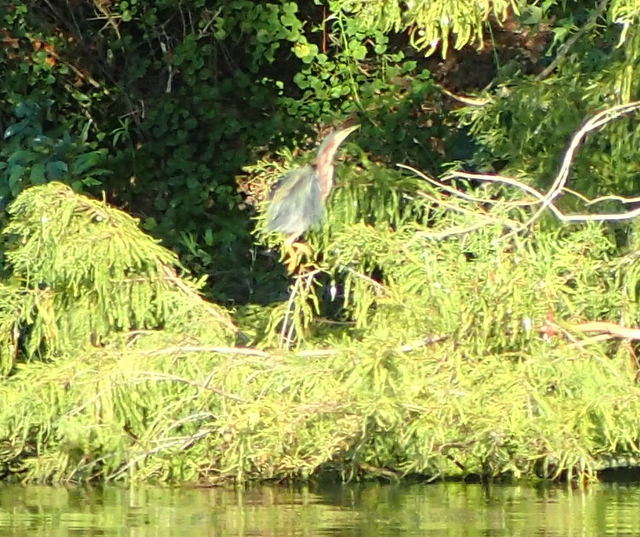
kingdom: Animalia
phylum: Chordata
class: Aves
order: Pelecaniformes
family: Ardeidae
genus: Butorides
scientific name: Butorides virescens
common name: Green heron
